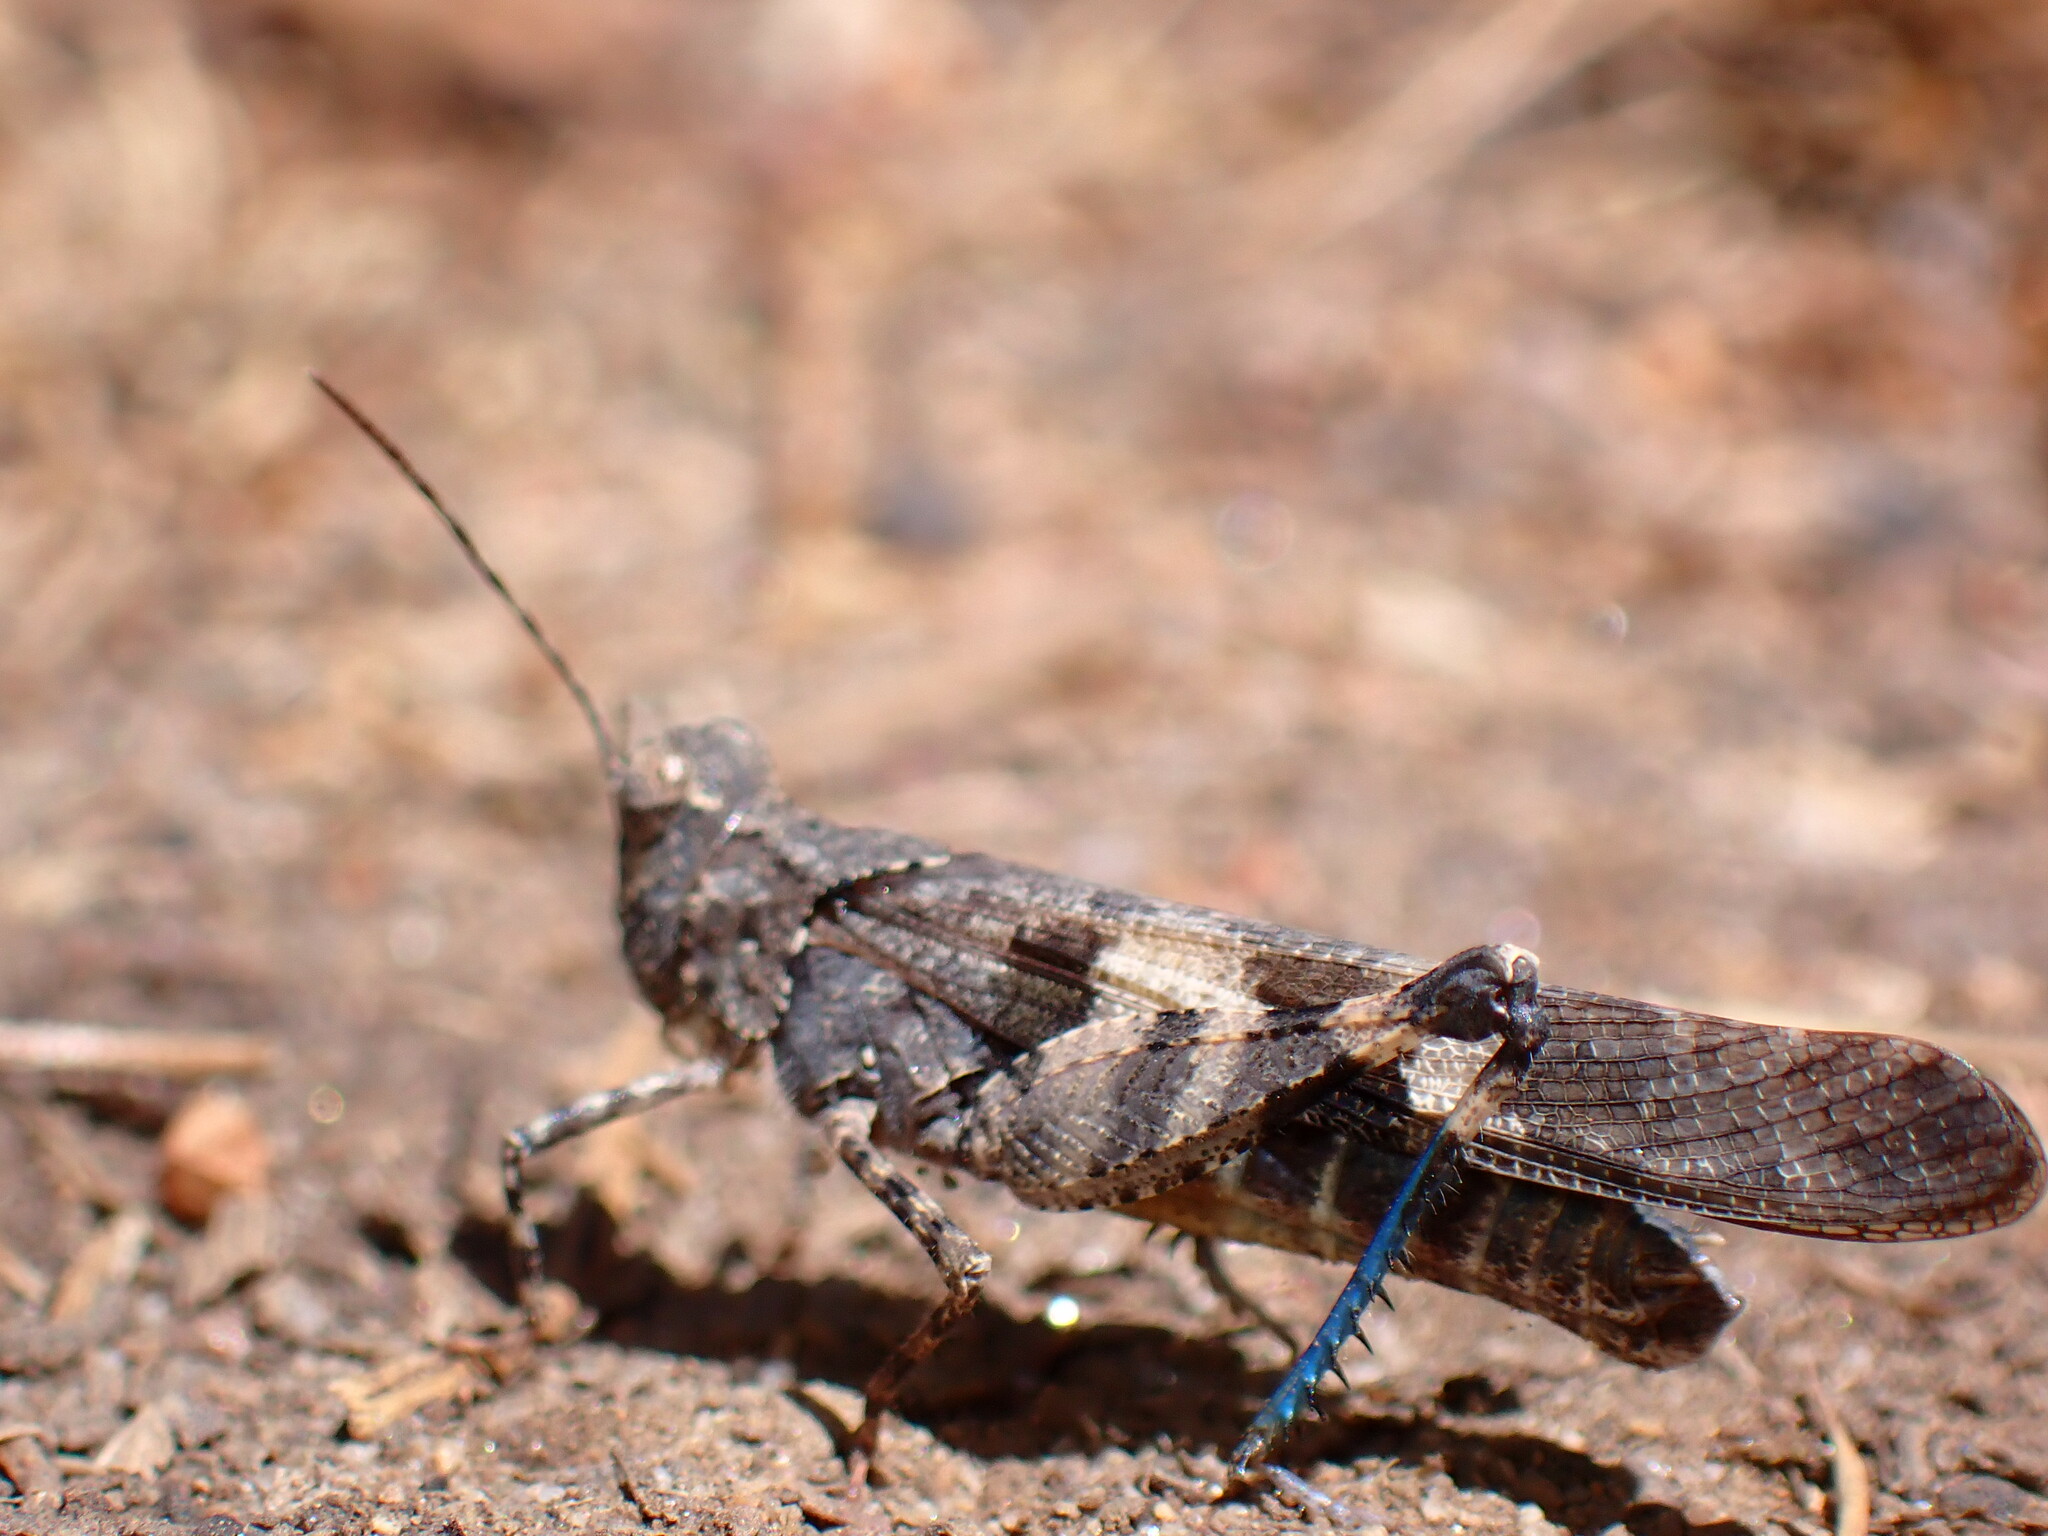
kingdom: Animalia
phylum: Arthropoda
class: Insecta
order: Orthoptera
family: Acrididae
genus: Trimerotropis
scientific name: Trimerotropis fontana
